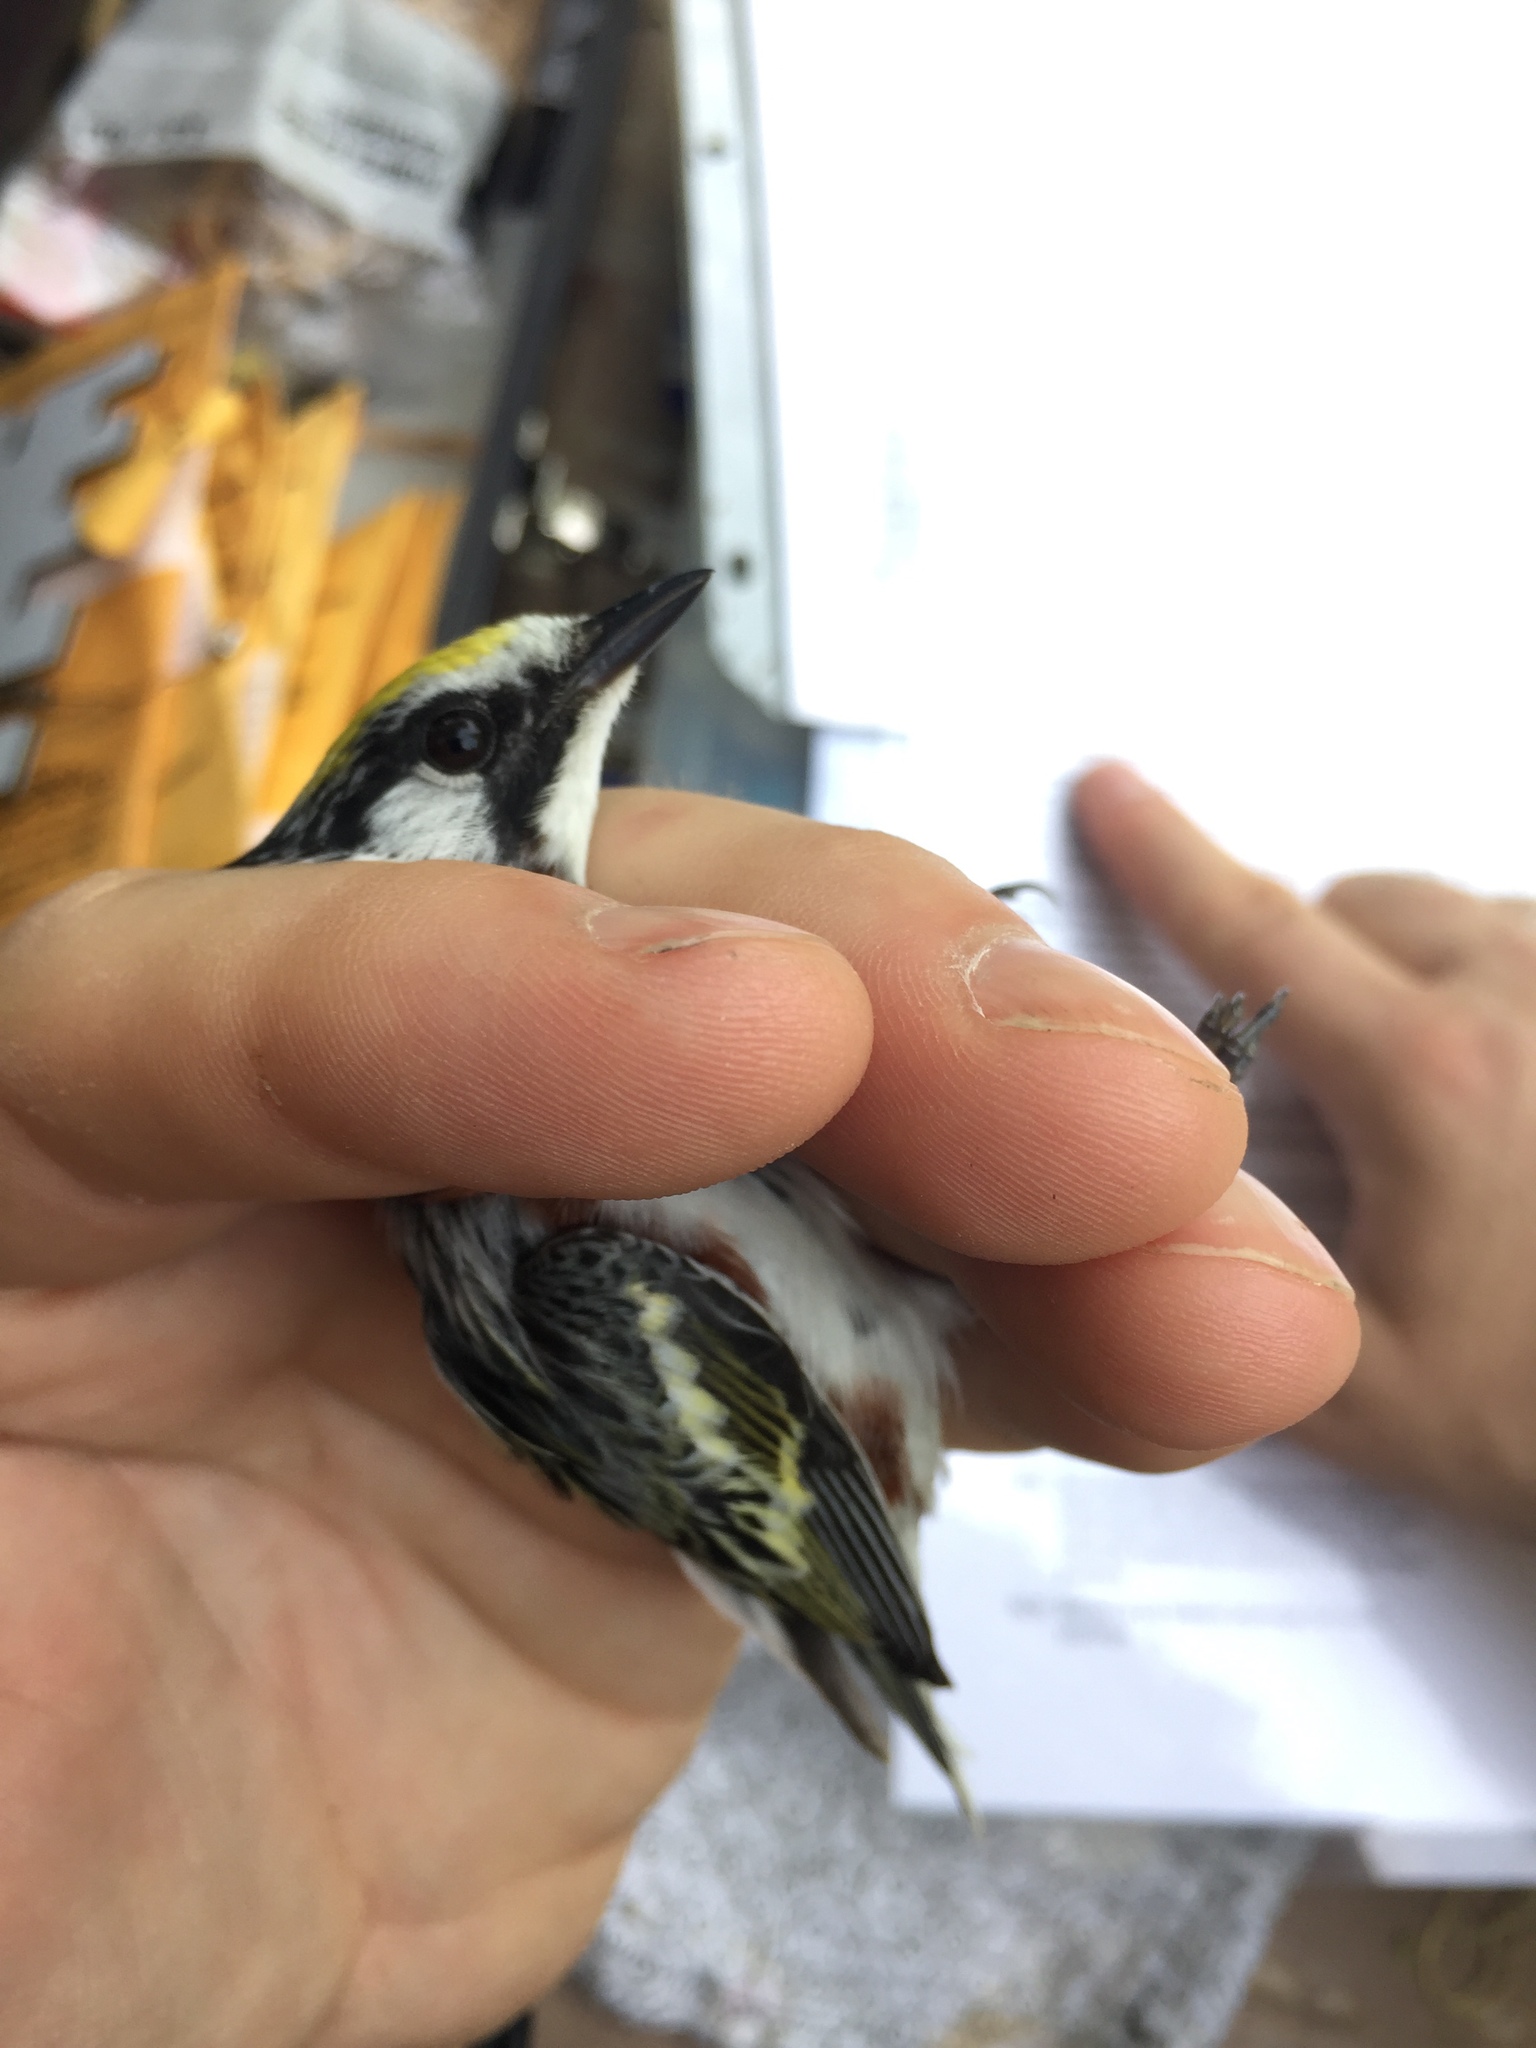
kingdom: Animalia
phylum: Chordata
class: Aves
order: Passeriformes
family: Parulidae
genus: Setophaga
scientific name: Setophaga pensylvanica
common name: Chestnut-sided warbler
